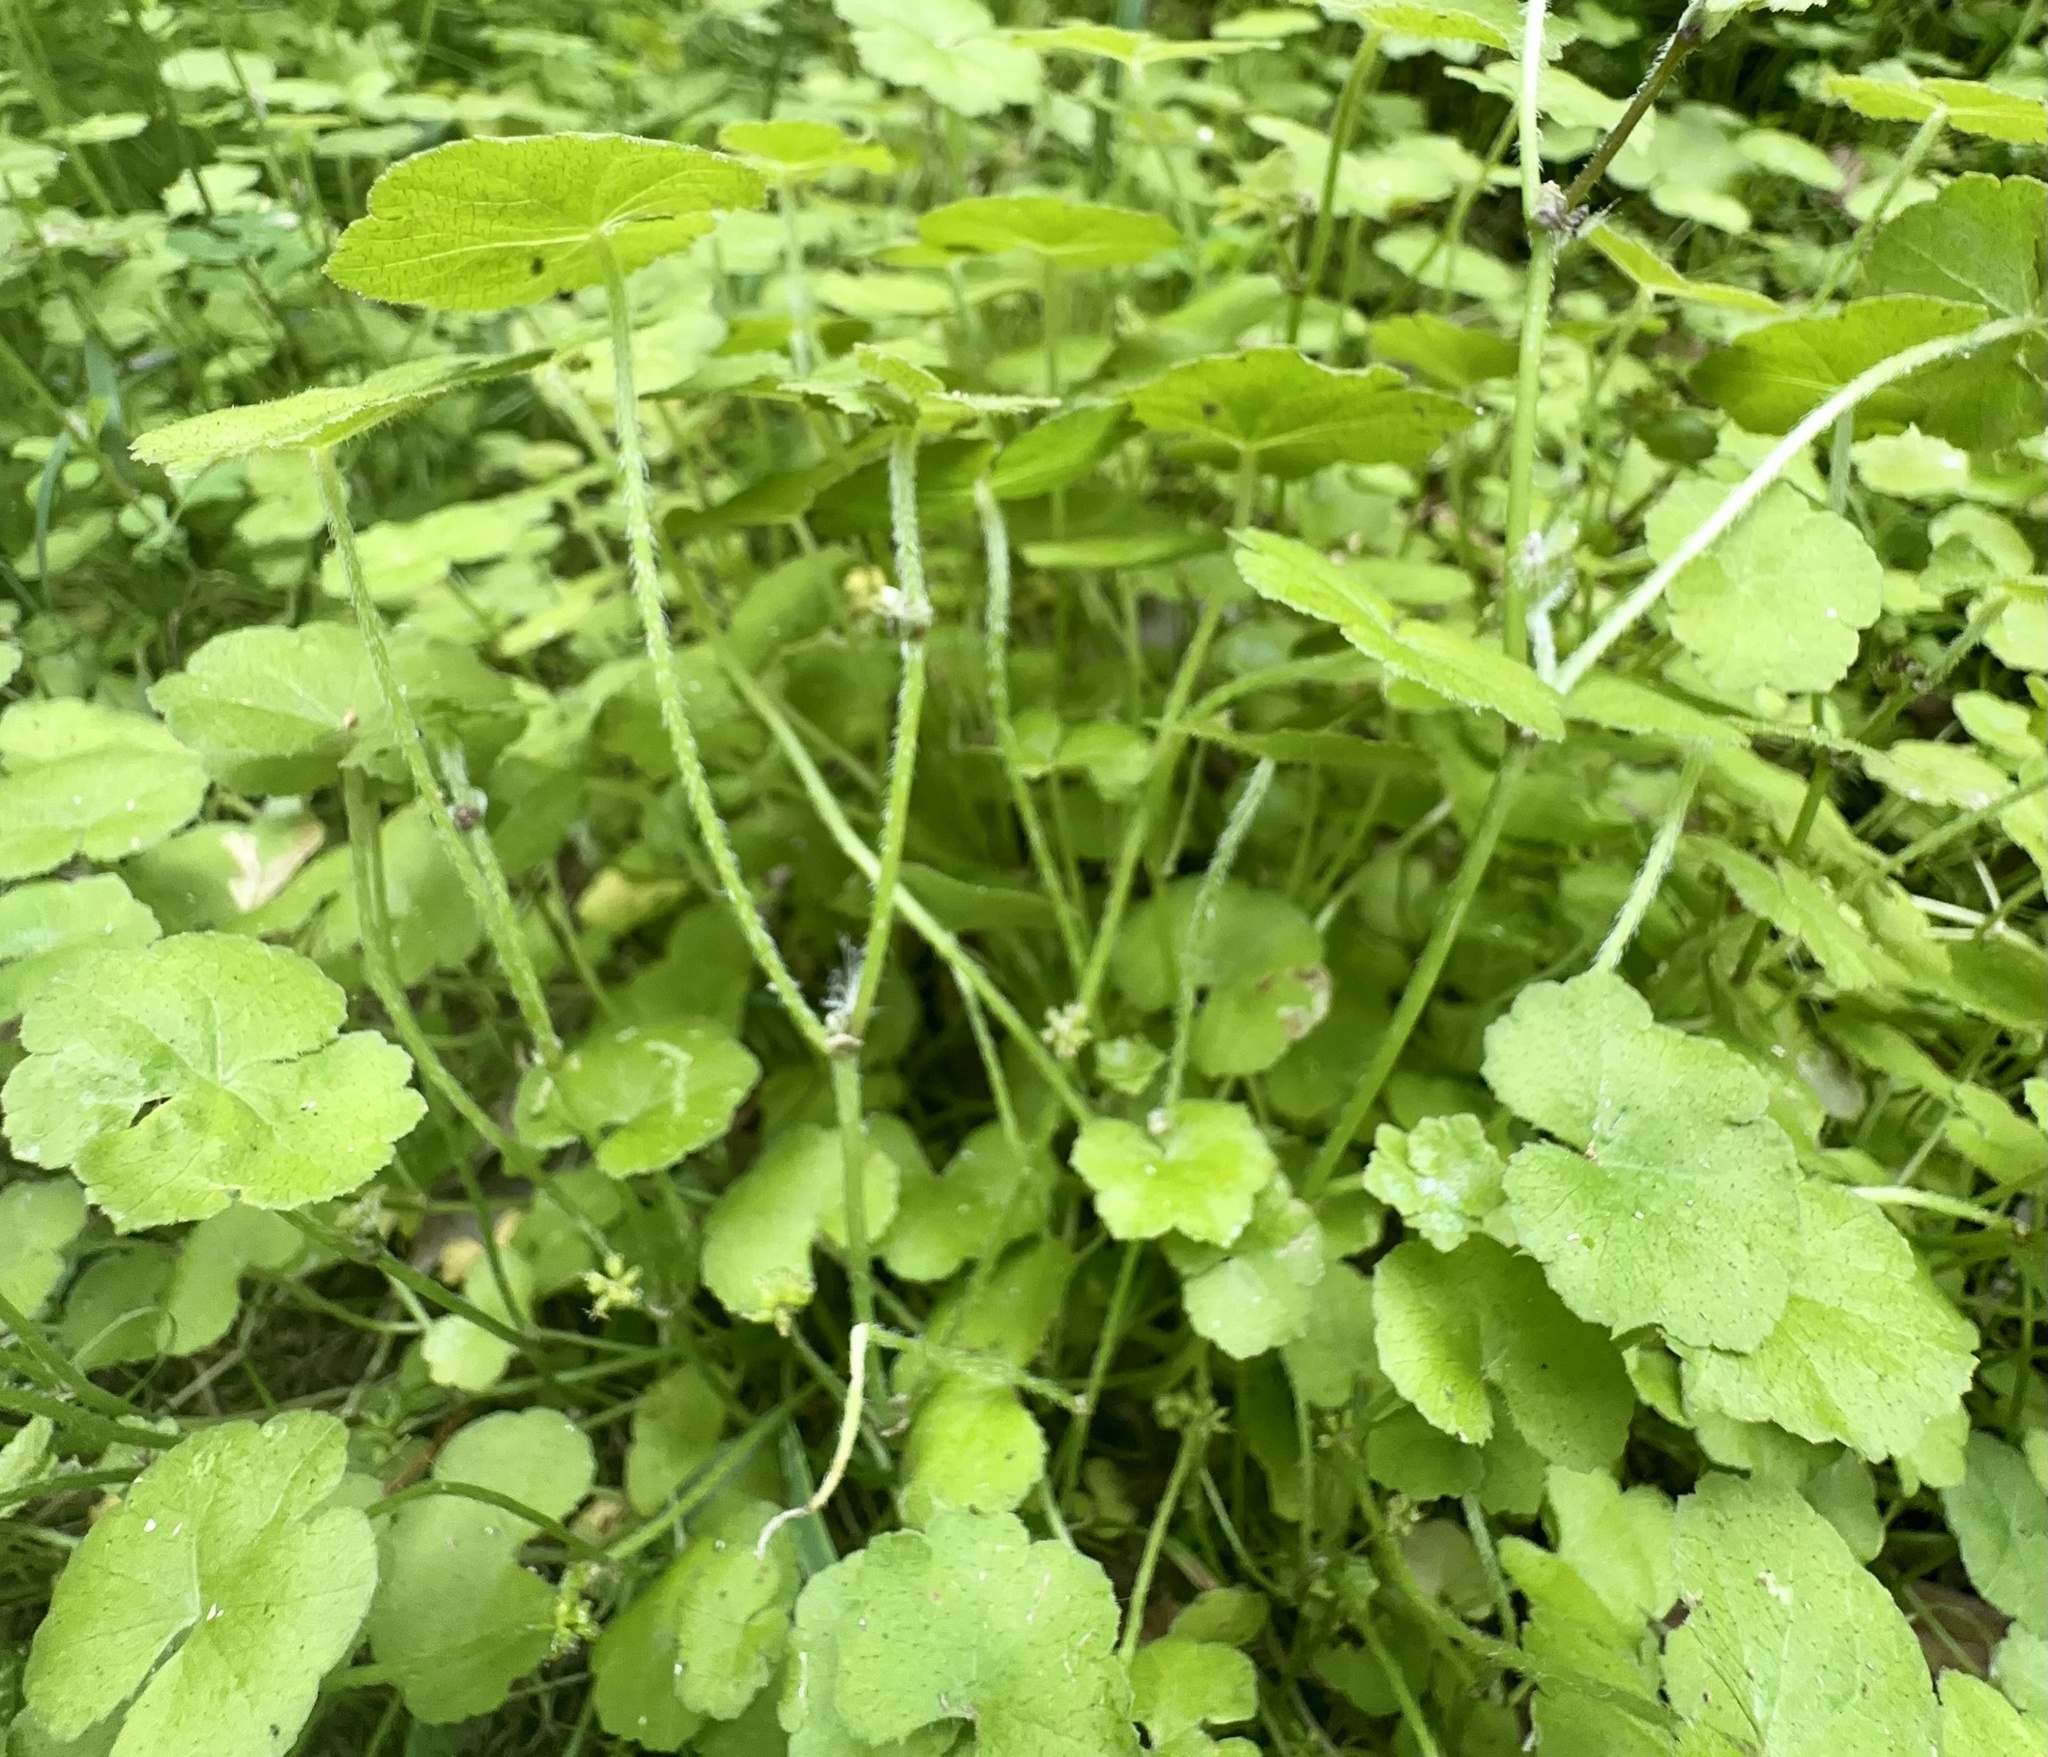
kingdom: Plantae
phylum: Tracheophyta
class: Magnoliopsida
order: Apiales
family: Araliaceae
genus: Hydrocotyle
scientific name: Hydrocotyle novae-zeelandiae
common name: New zealand pennywort
